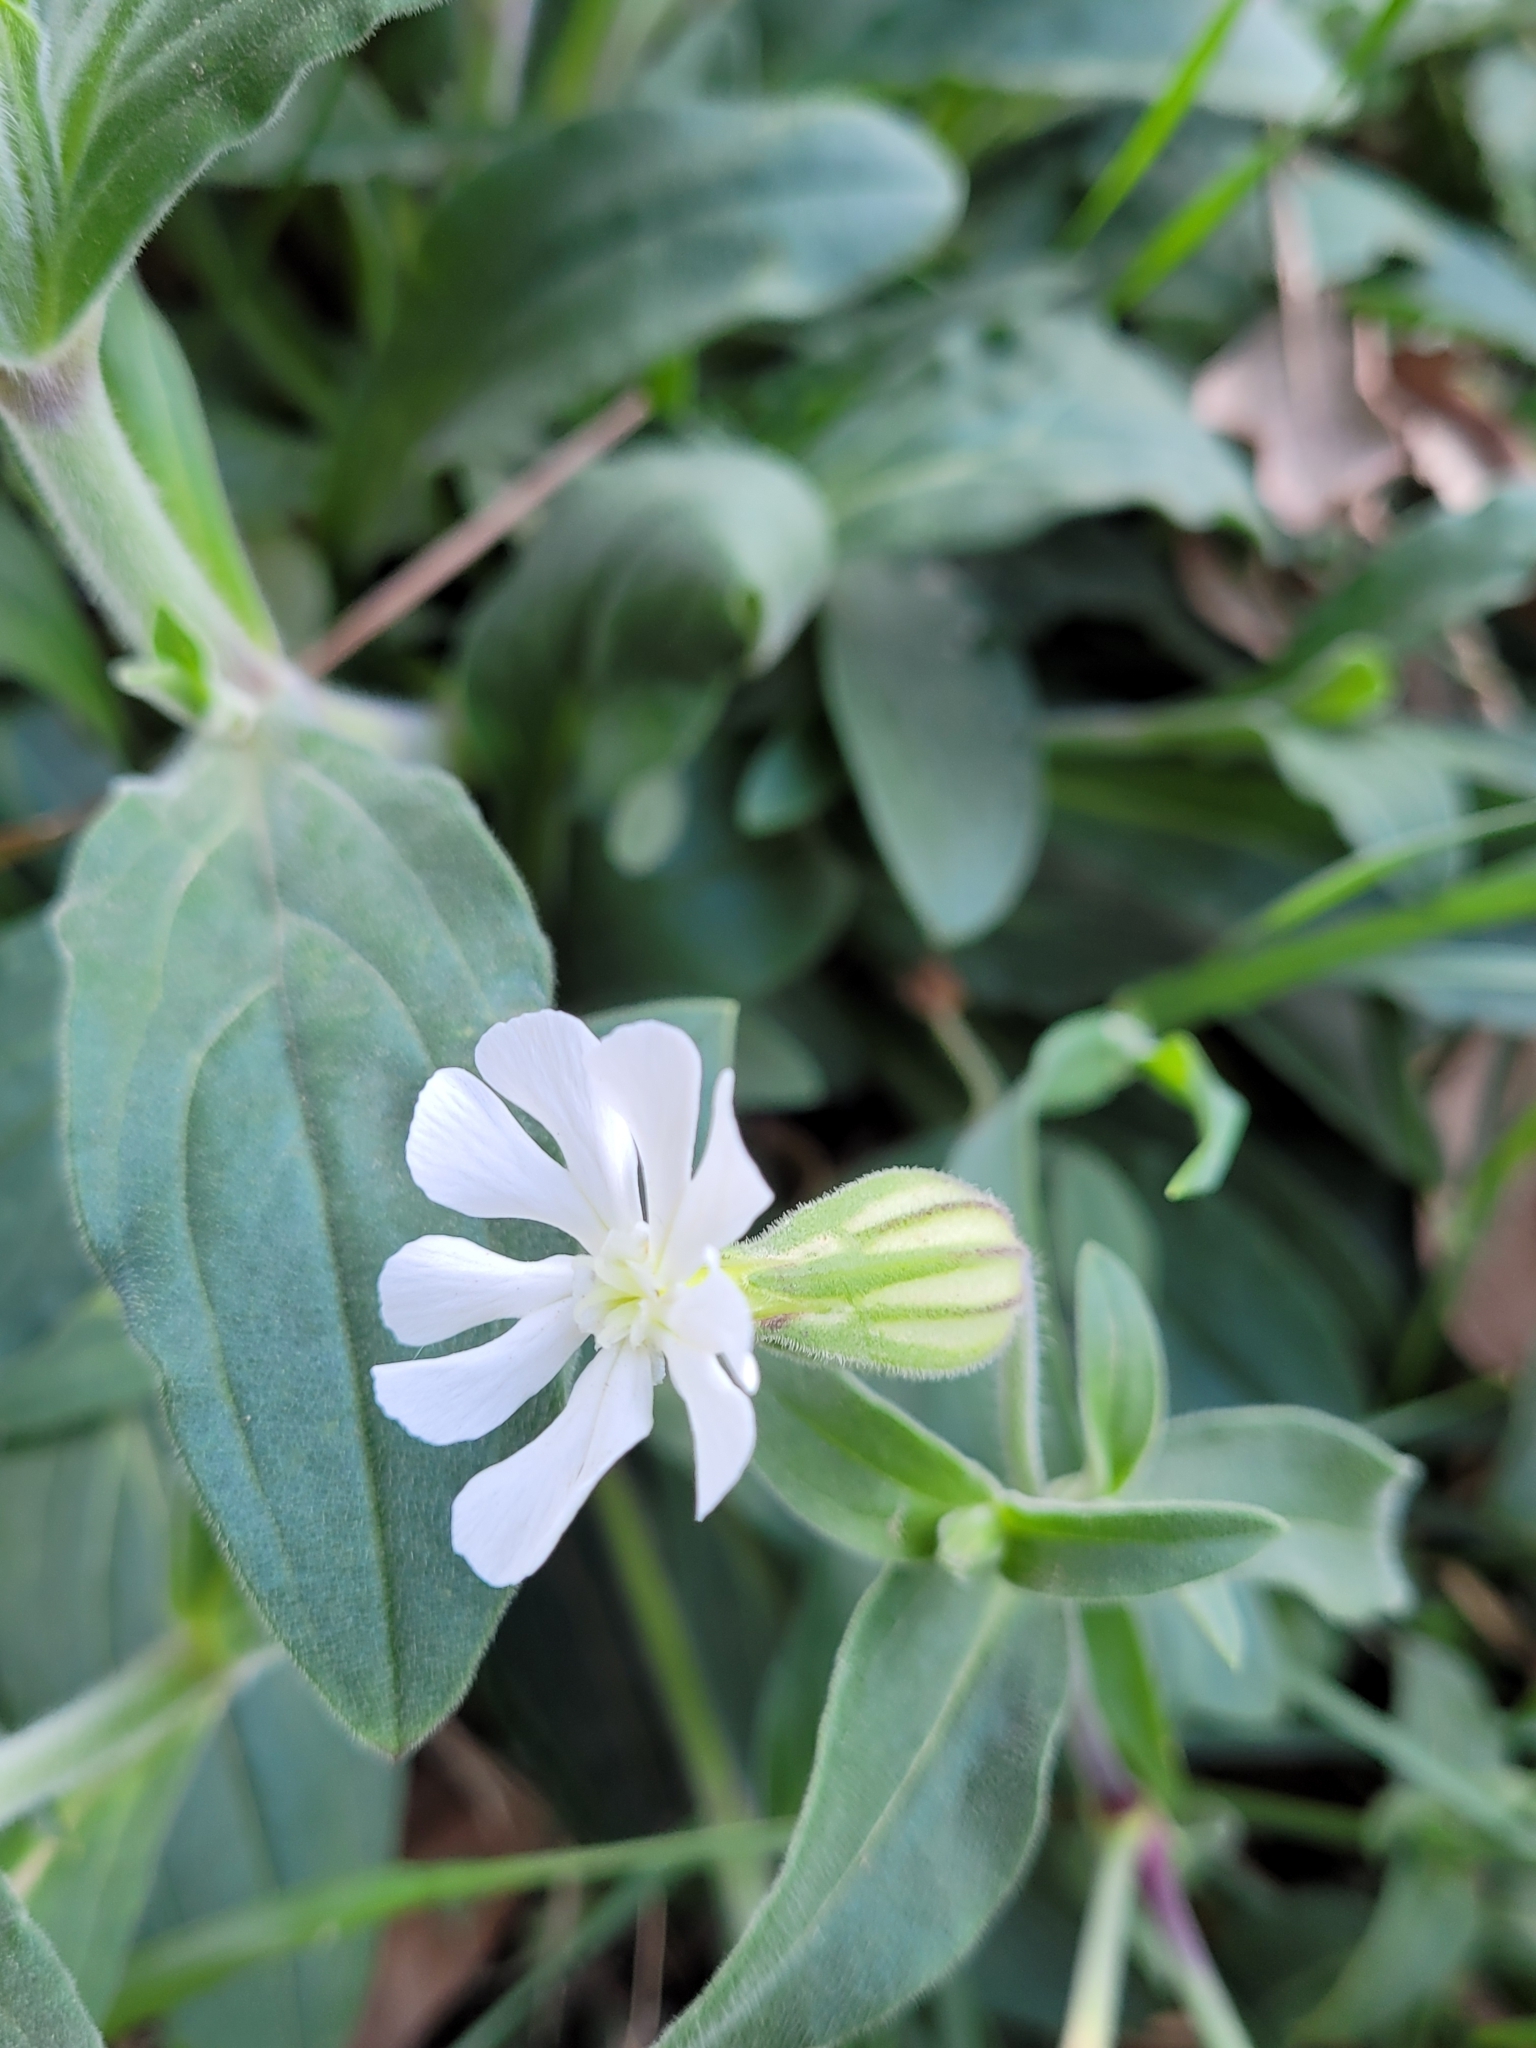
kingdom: Plantae
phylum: Tracheophyta
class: Magnoliopsida
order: Caryophyllales
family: Caryophyllaceae
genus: Silene
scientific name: Silene latifolia
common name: White campion
